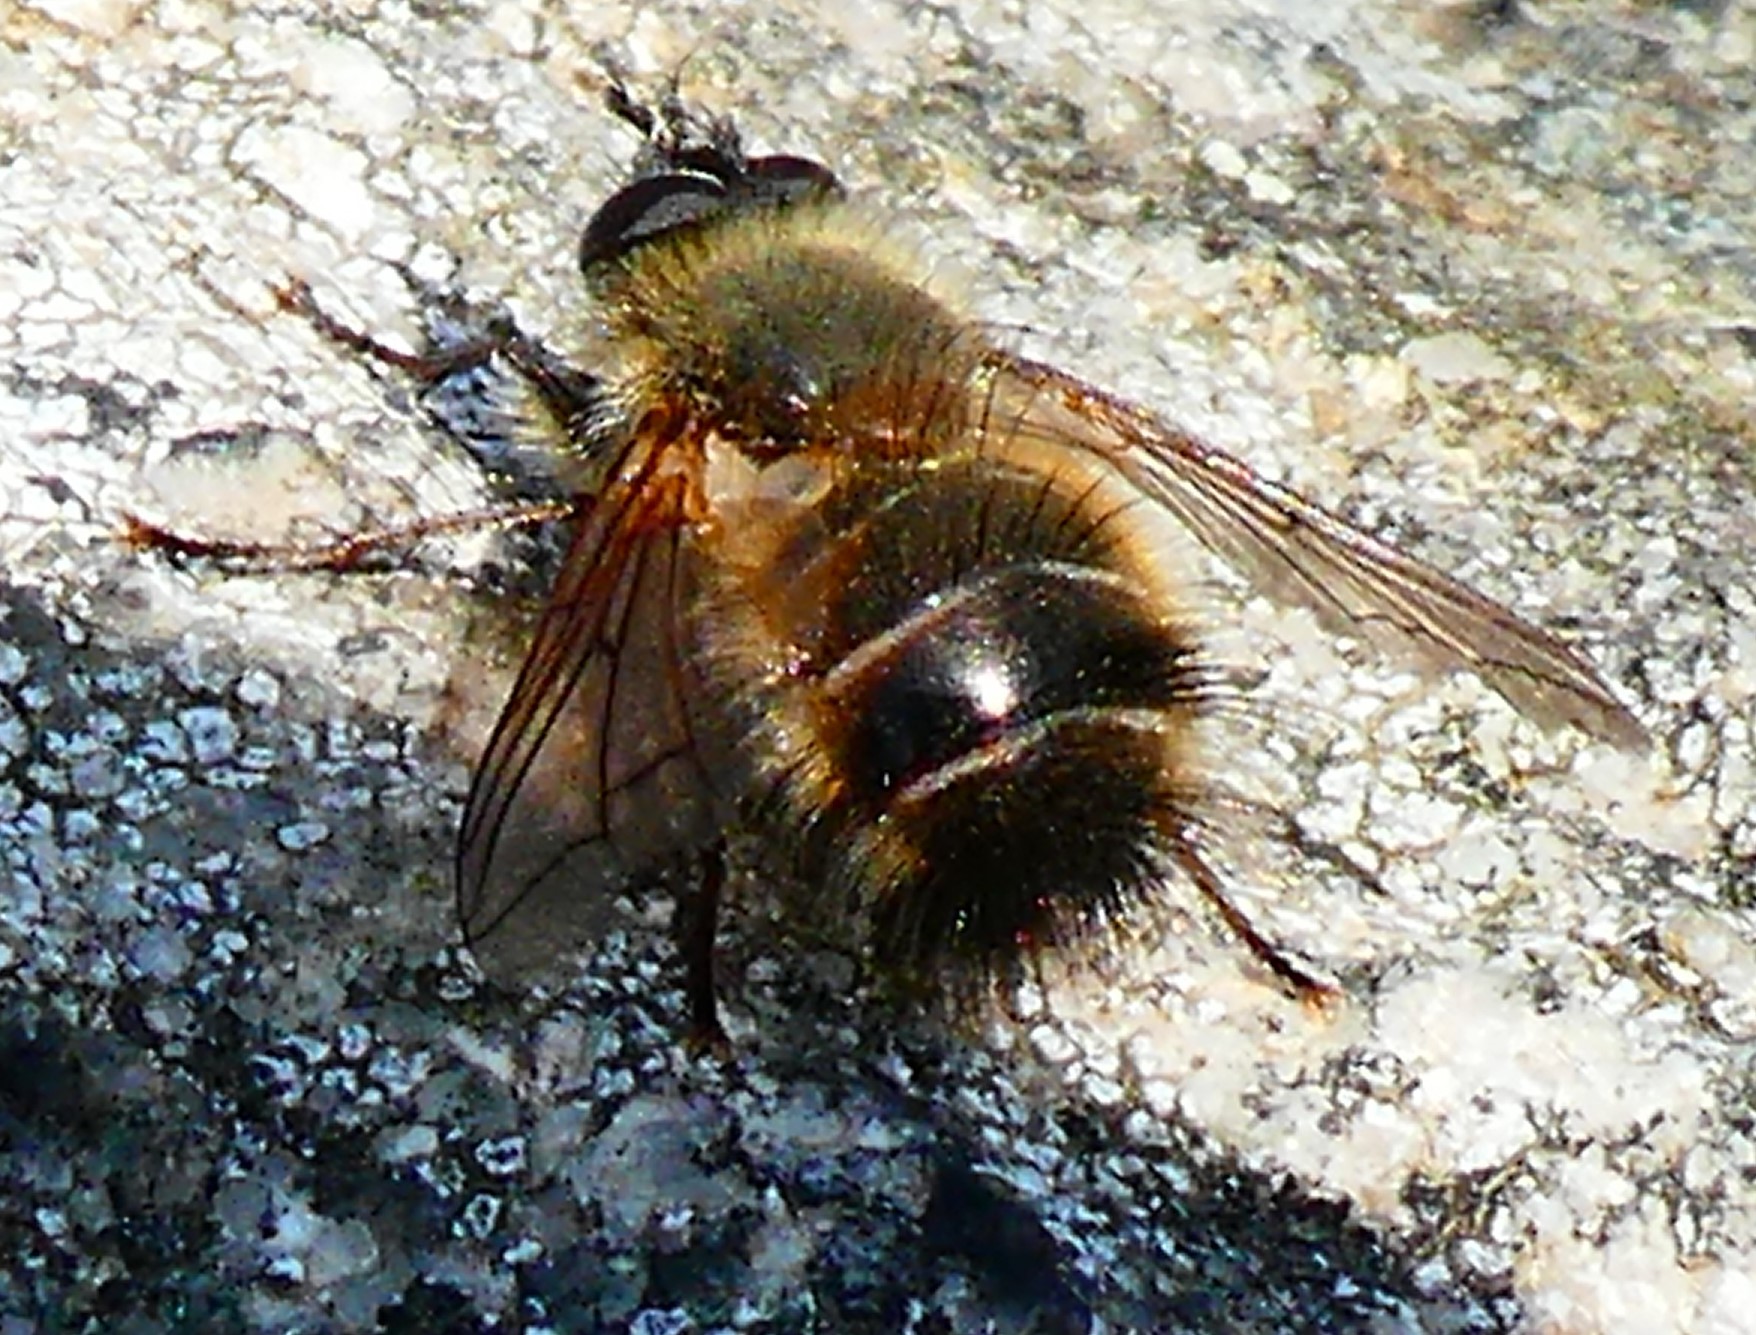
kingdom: Animalia
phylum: Arthropoda
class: Insecta
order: Diptera
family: Tachinidae
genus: Tachina
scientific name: Tachina ursina
